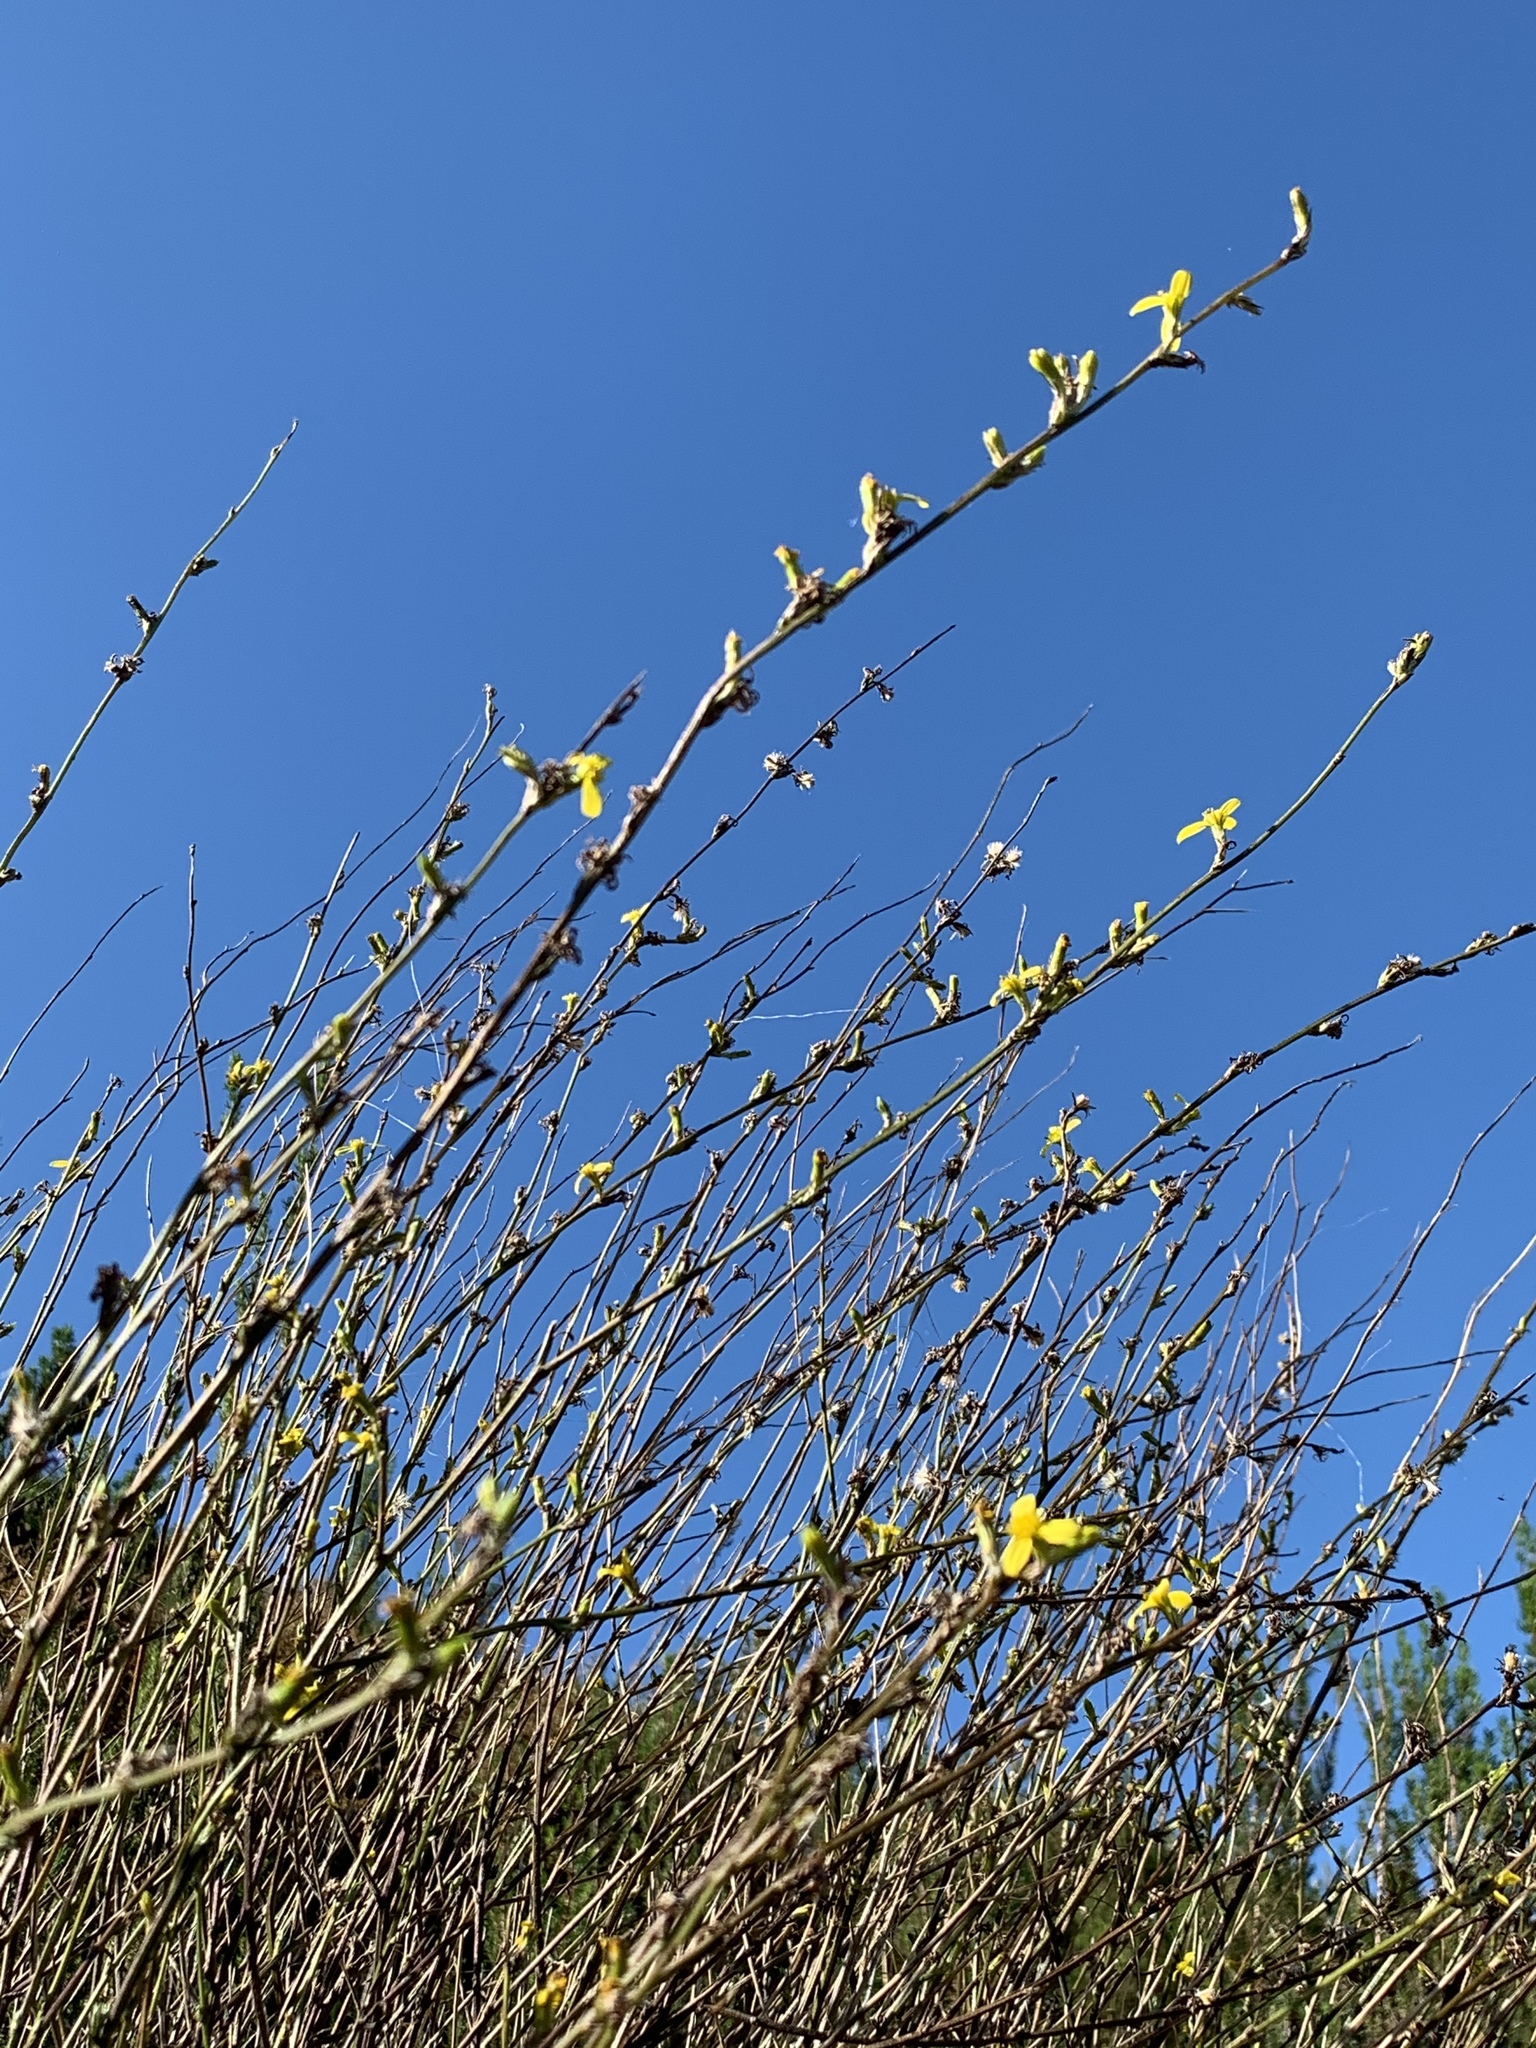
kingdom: Plantae
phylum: Tracheophyta
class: Magnoliopsida
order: Asterales
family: Asteraceae
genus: Senecio
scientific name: Senecio pubigerus
